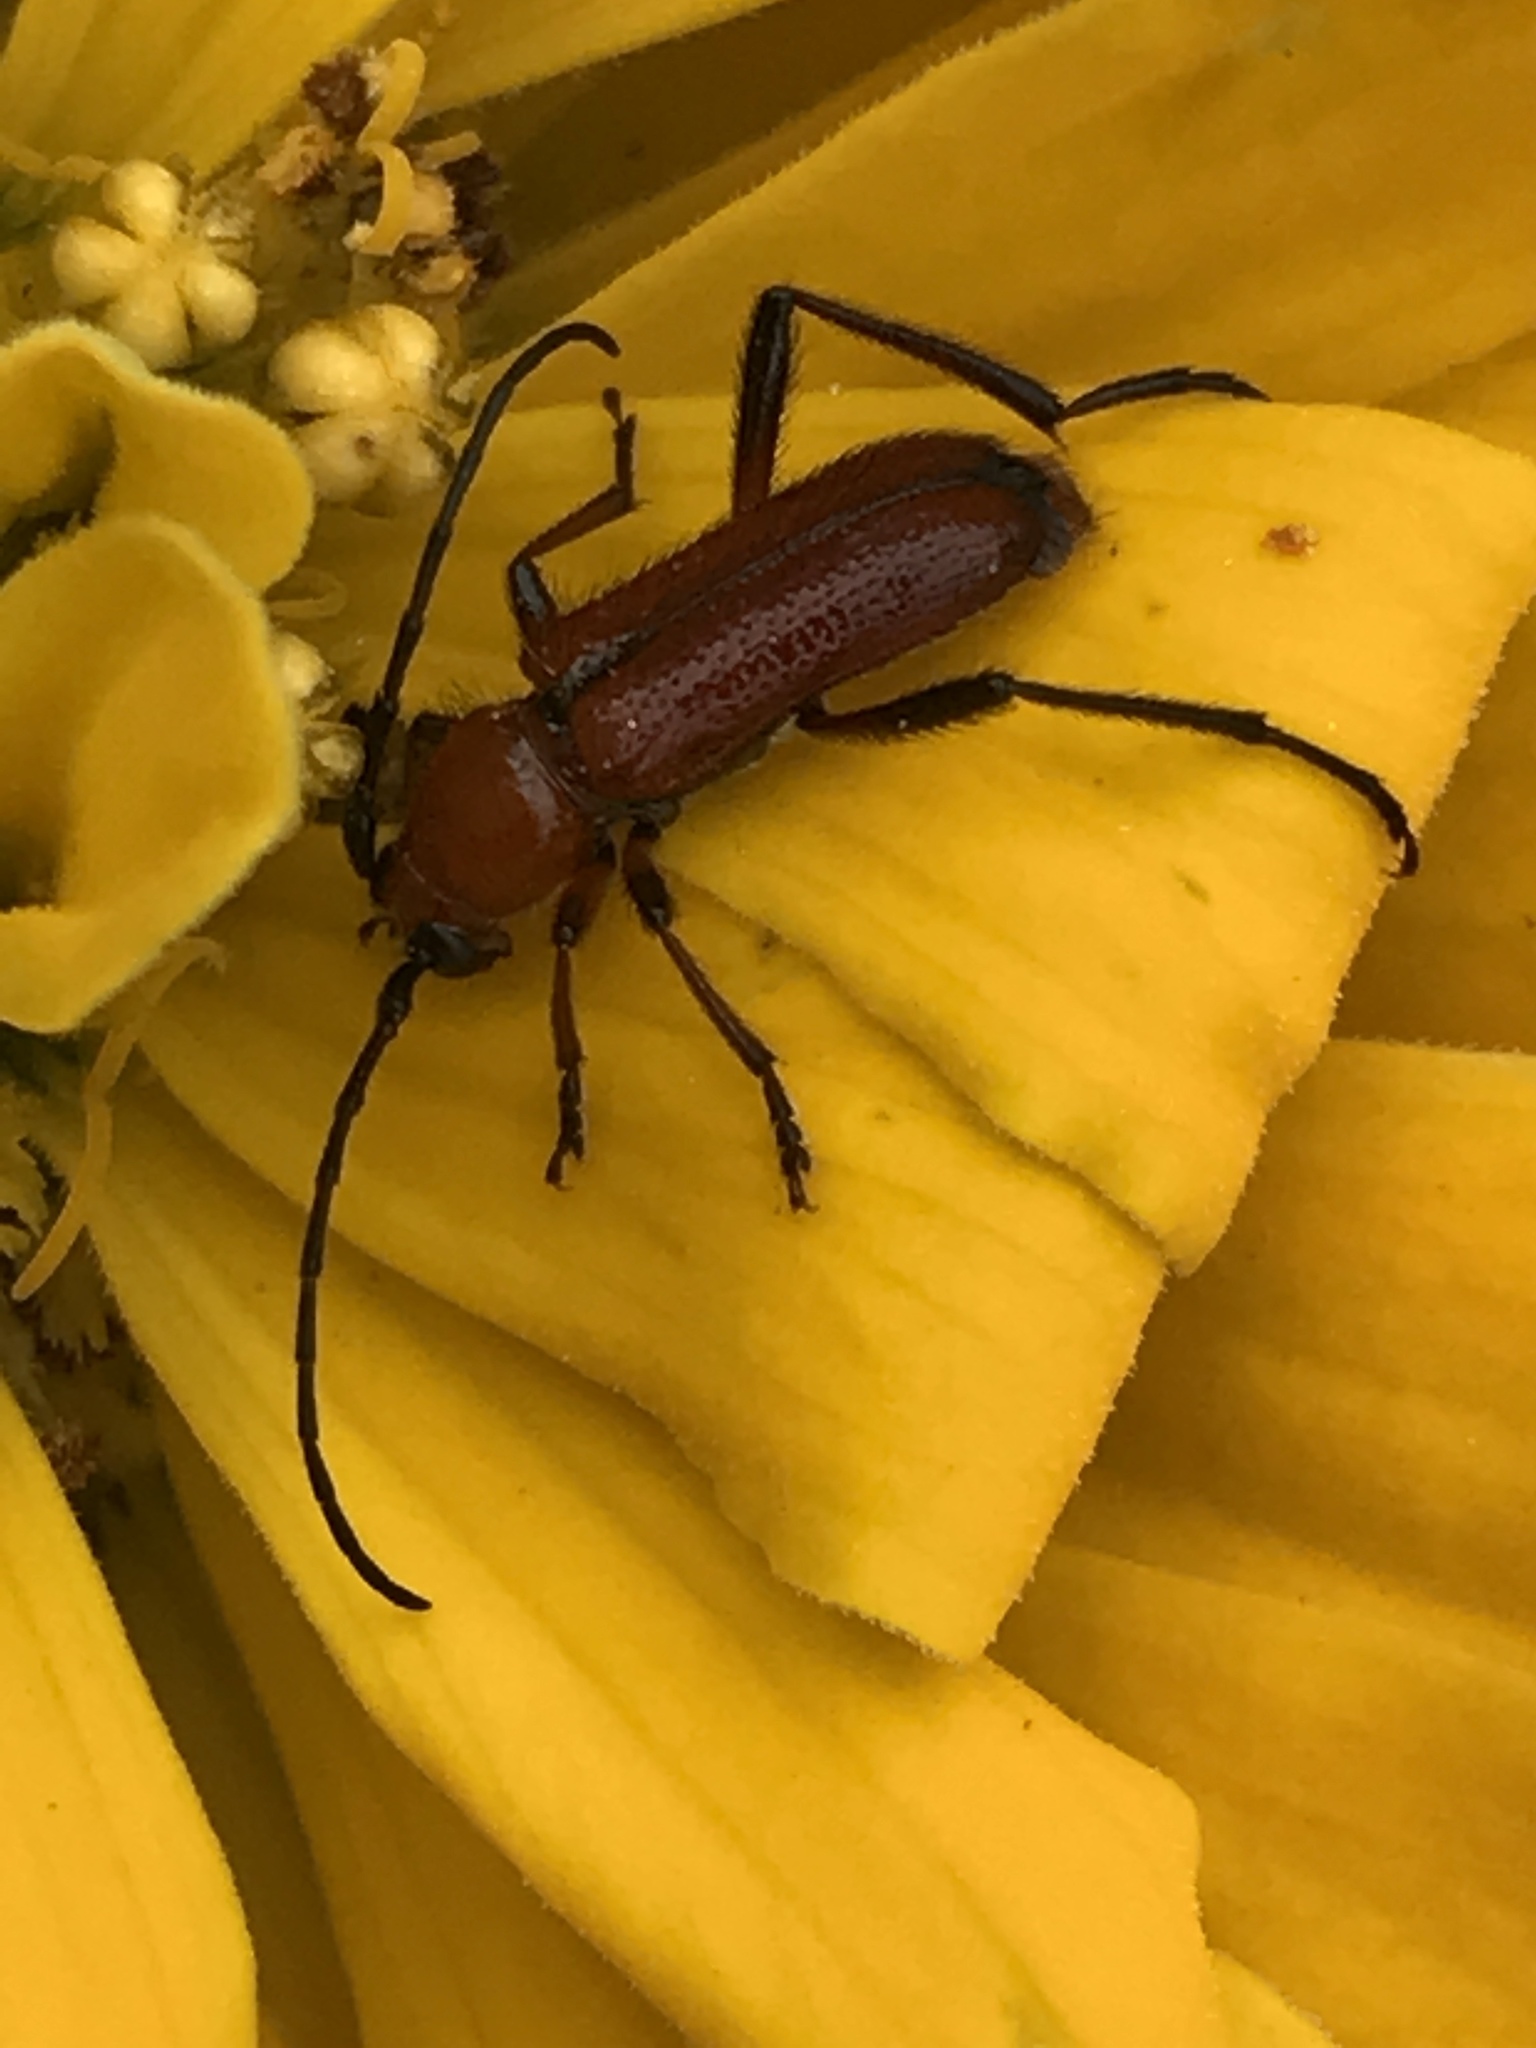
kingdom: Animalia
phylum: Arthropoda
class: Insecta
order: Coleoptera
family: Cerambycidae
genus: Batyle
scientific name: Batyle suturalis
